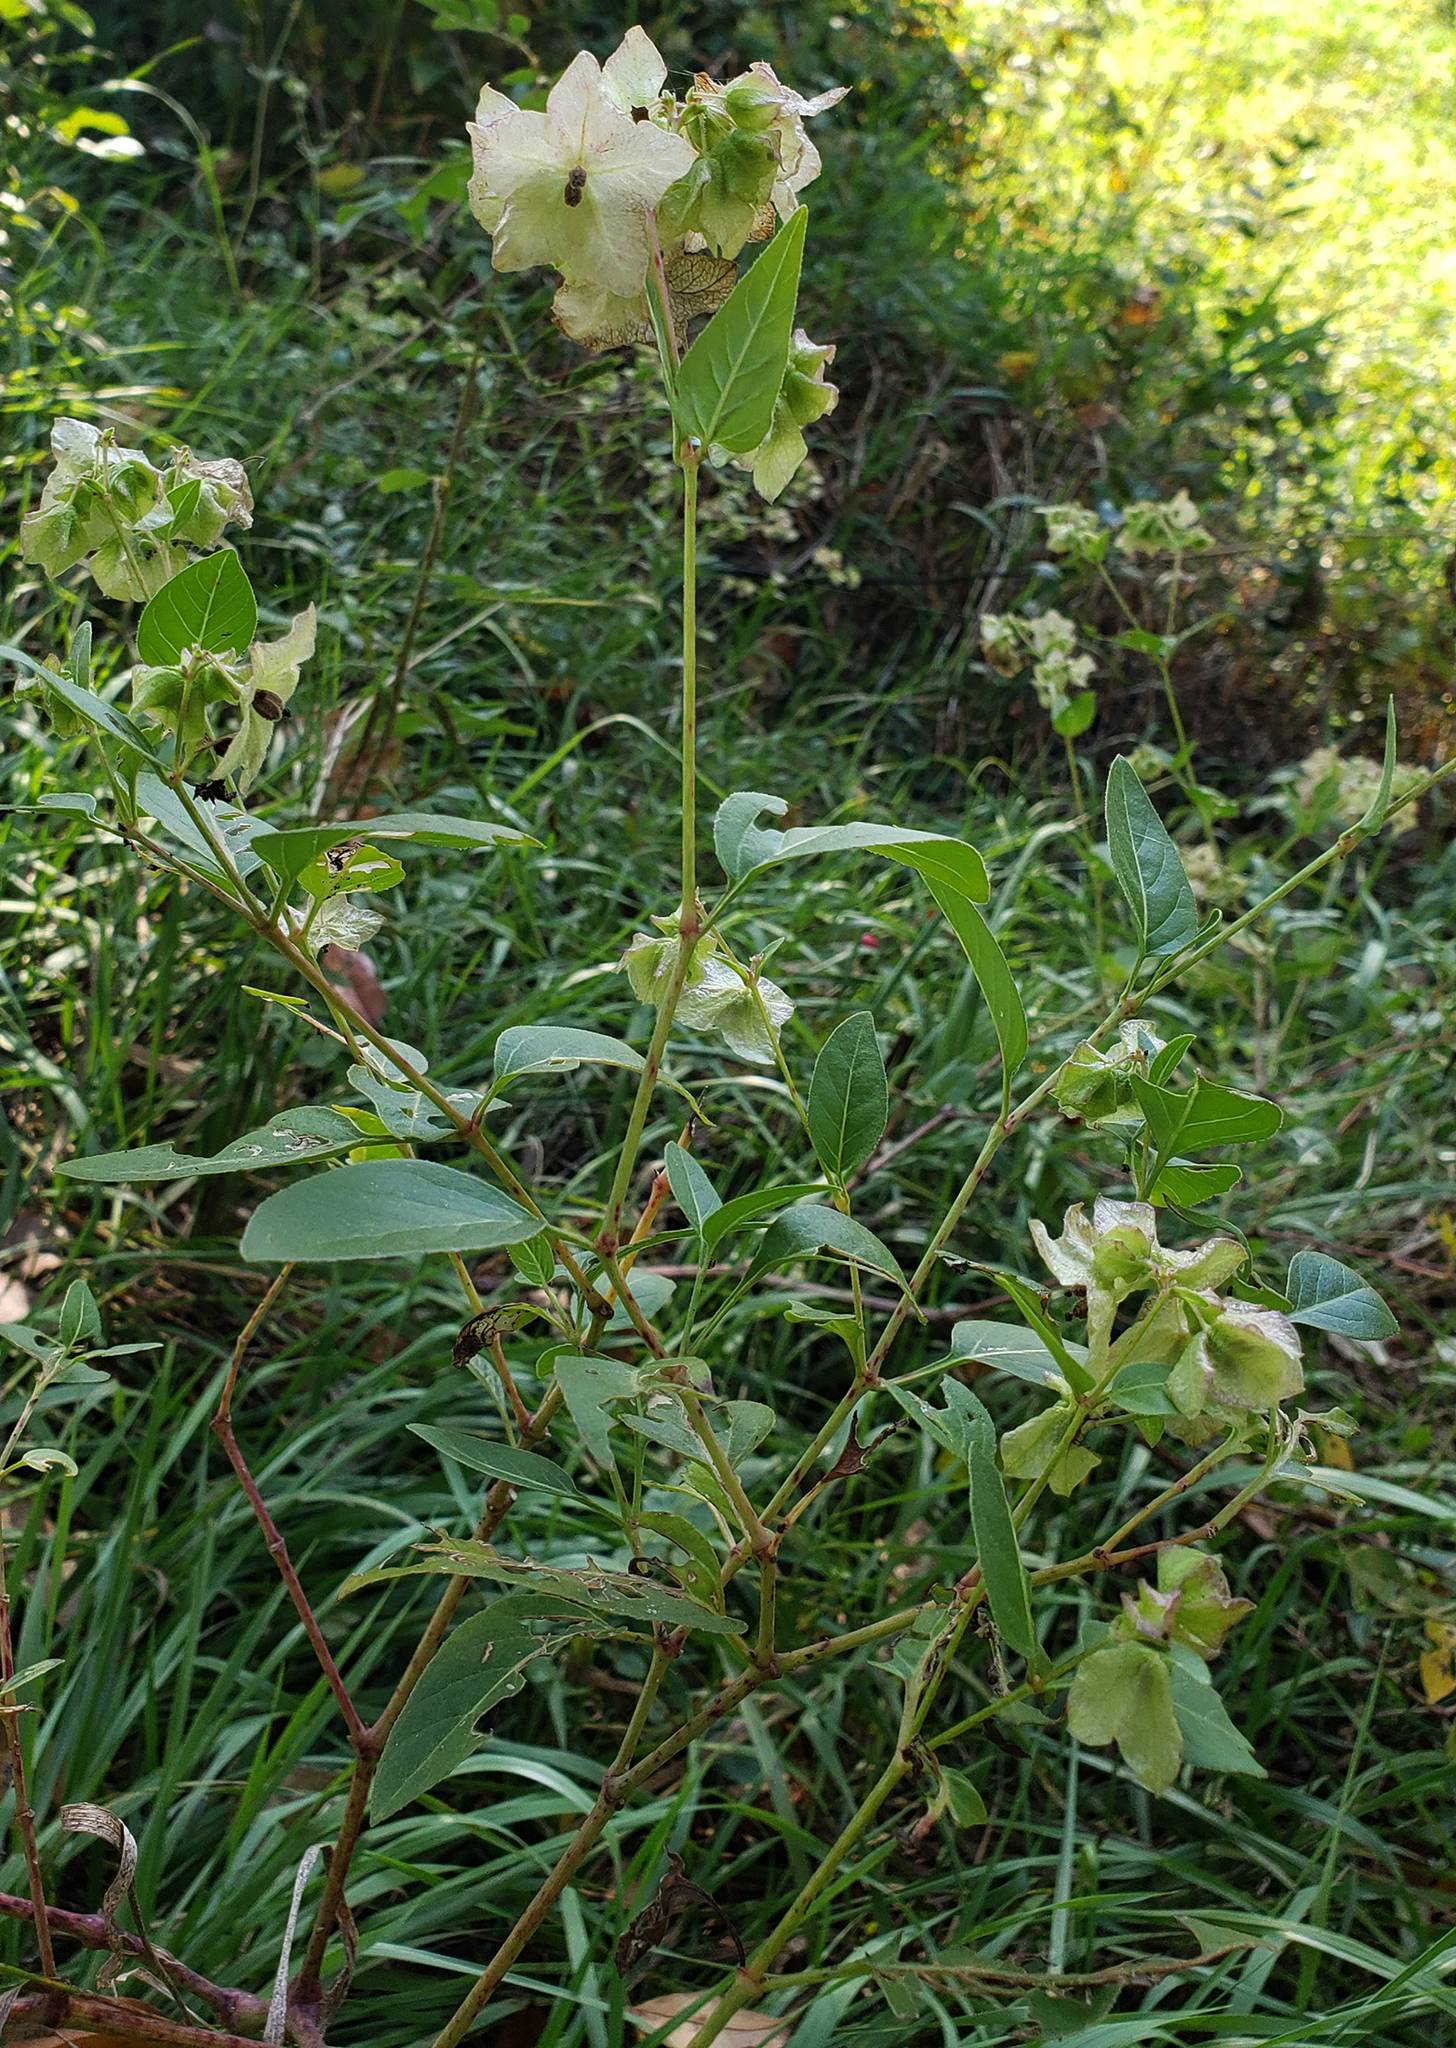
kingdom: Plantae
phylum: Tracheophyta
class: Magnoliopsida
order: Caryophyllales
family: Nyctaginaceae
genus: Mirabilis
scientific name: Mirabilis nyctaginea
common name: Umbrella wort
